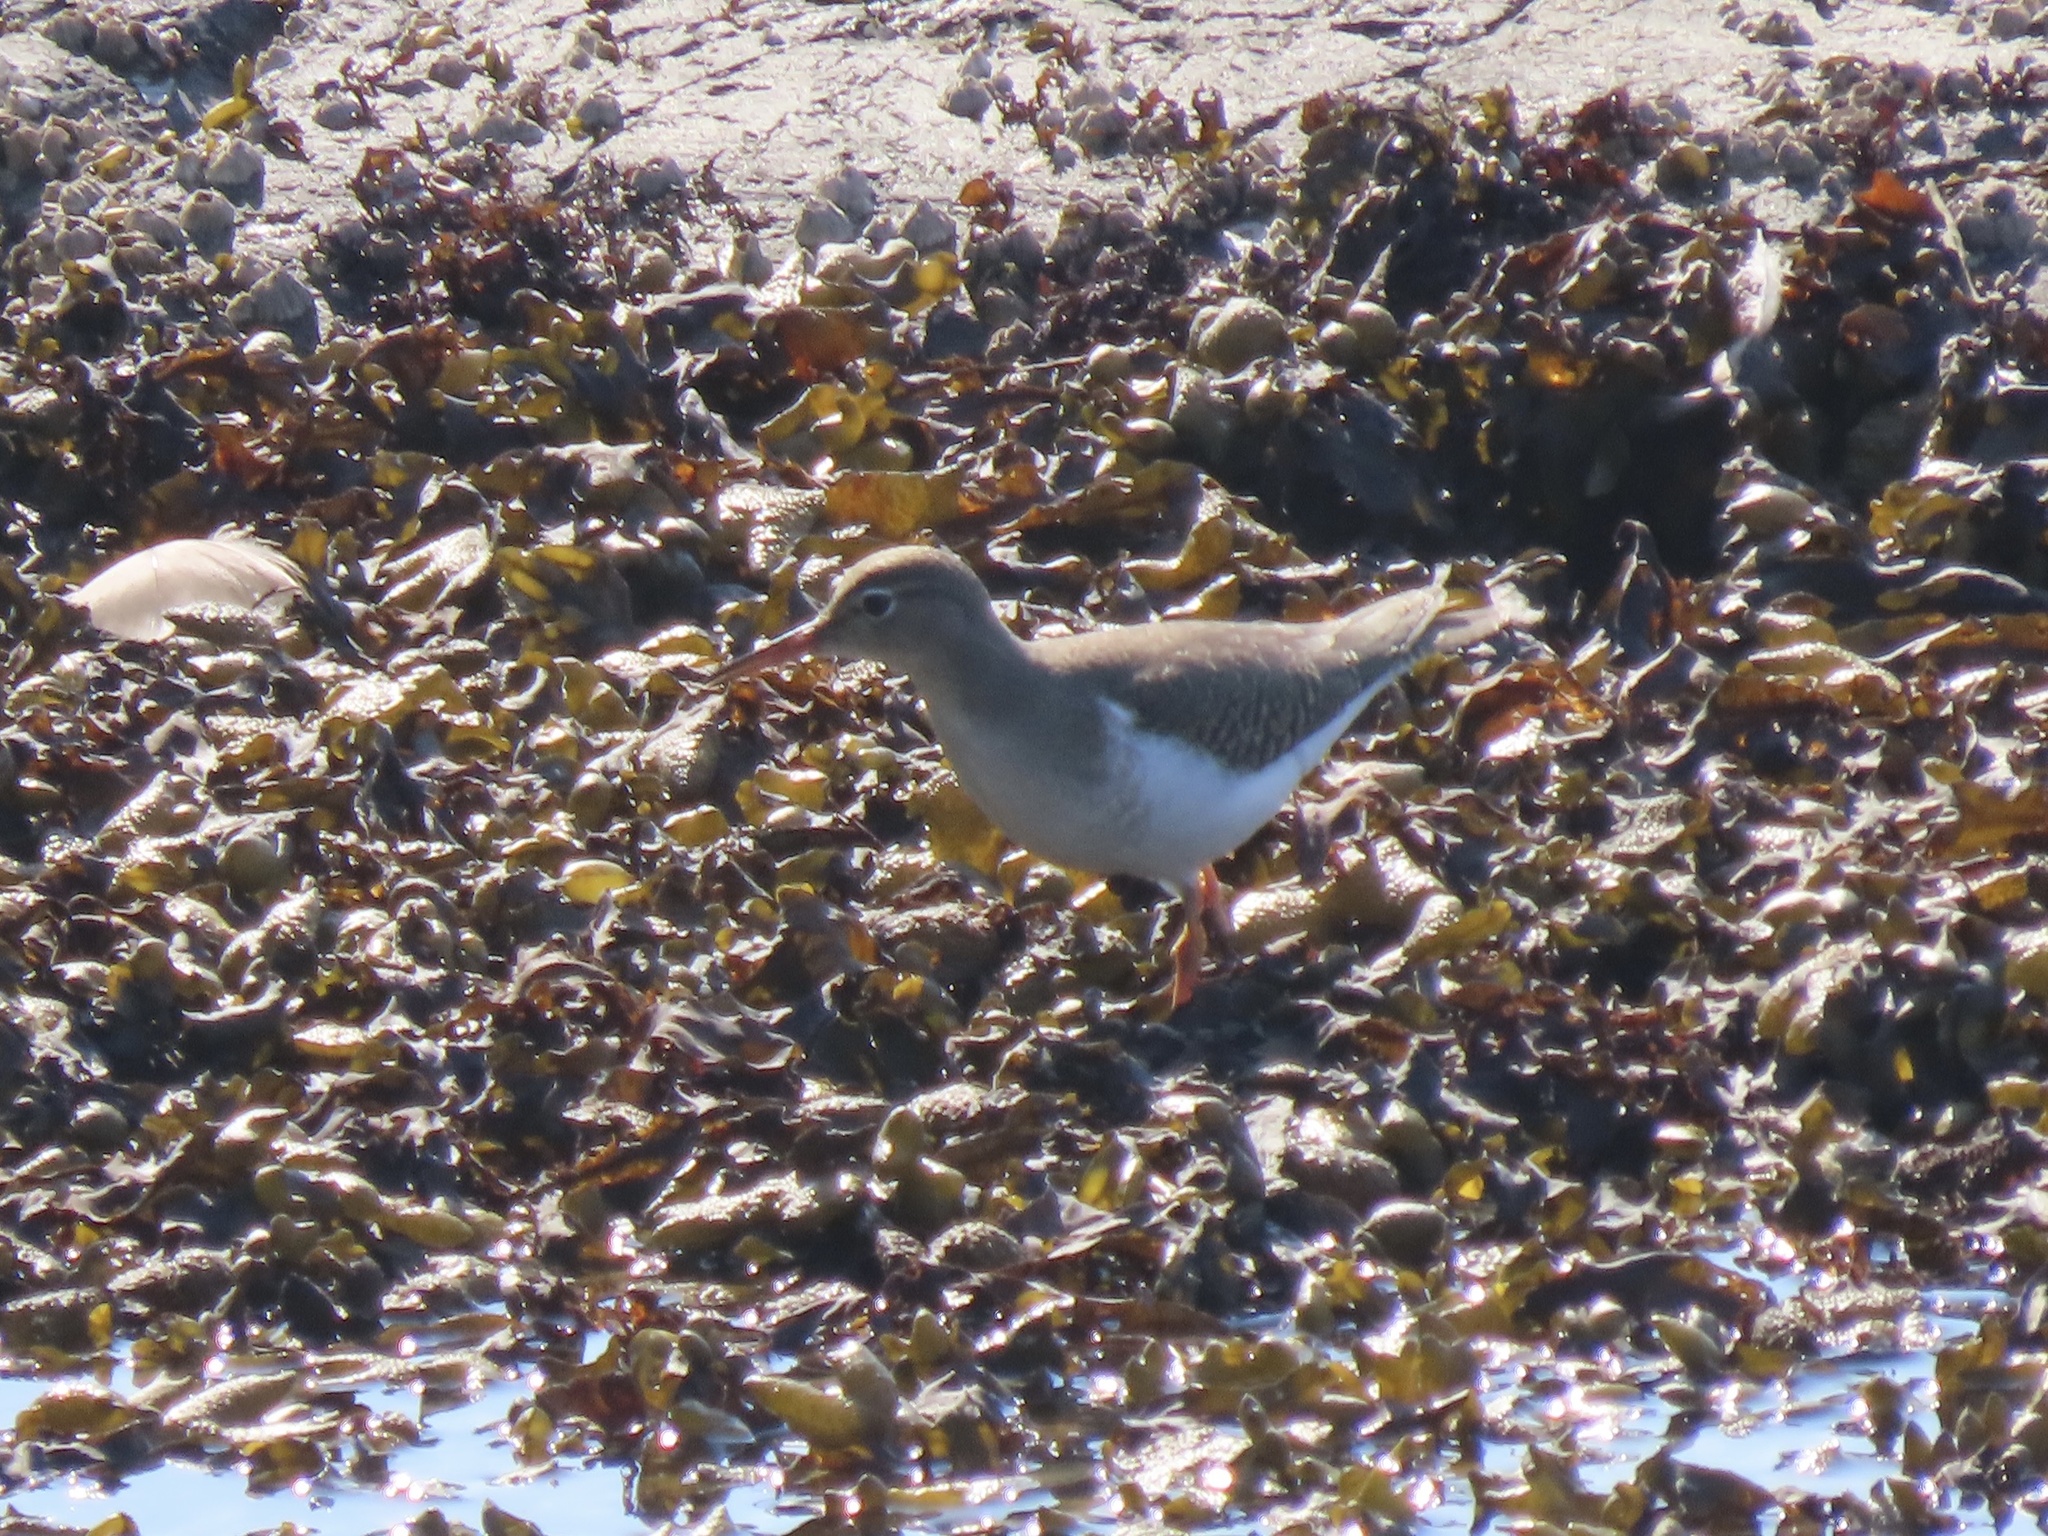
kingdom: Animalia
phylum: Chordata
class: Aves
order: Charadriiformes
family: Scolopacidae
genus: Actitis
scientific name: Actitis macularius
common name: Spotted sandpiper
